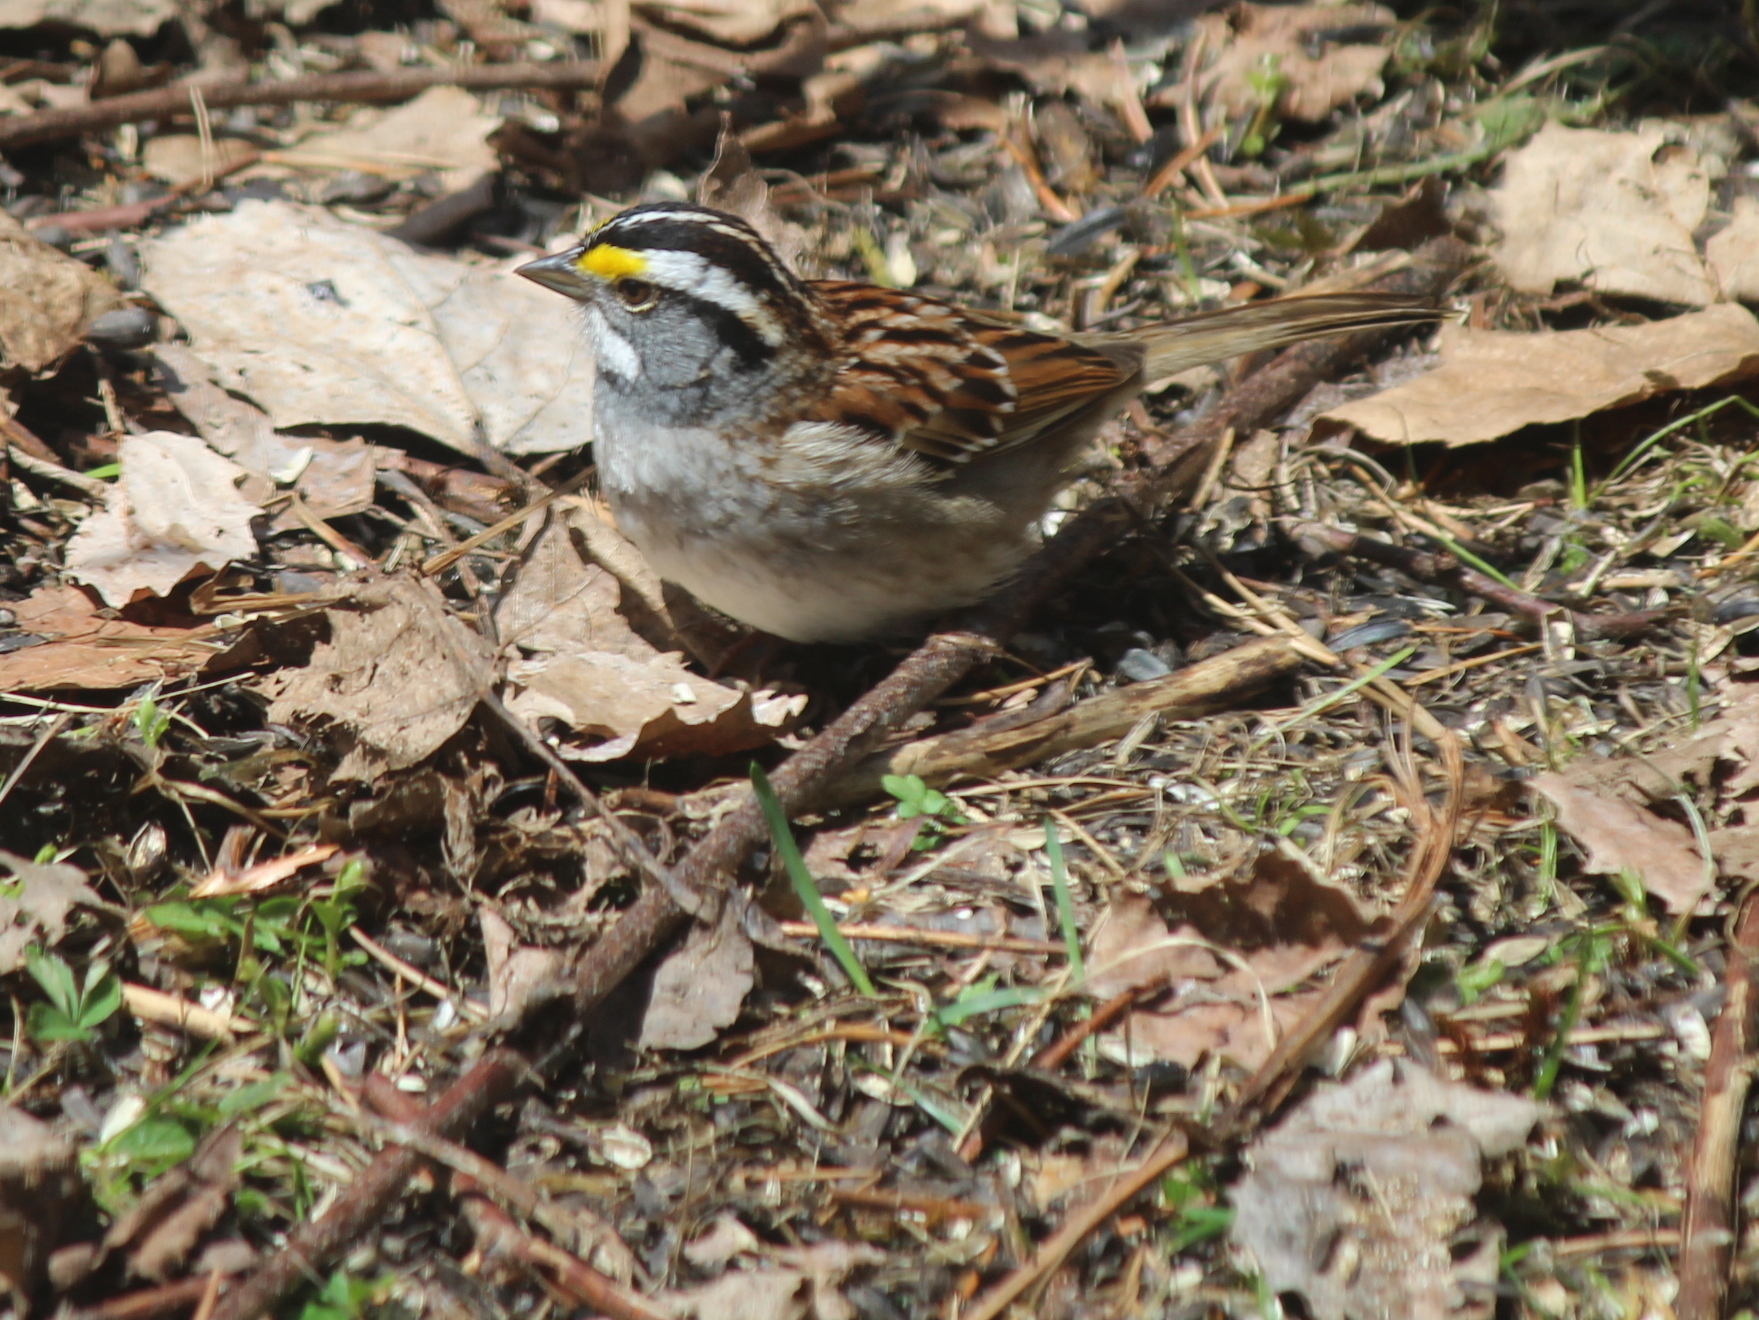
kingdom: Animalia
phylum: Chordata
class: Aves
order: Passeriformes
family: Passerellidae
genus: Zonotrichia
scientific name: Zonotrichia albicollis
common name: White-throated sparrow
